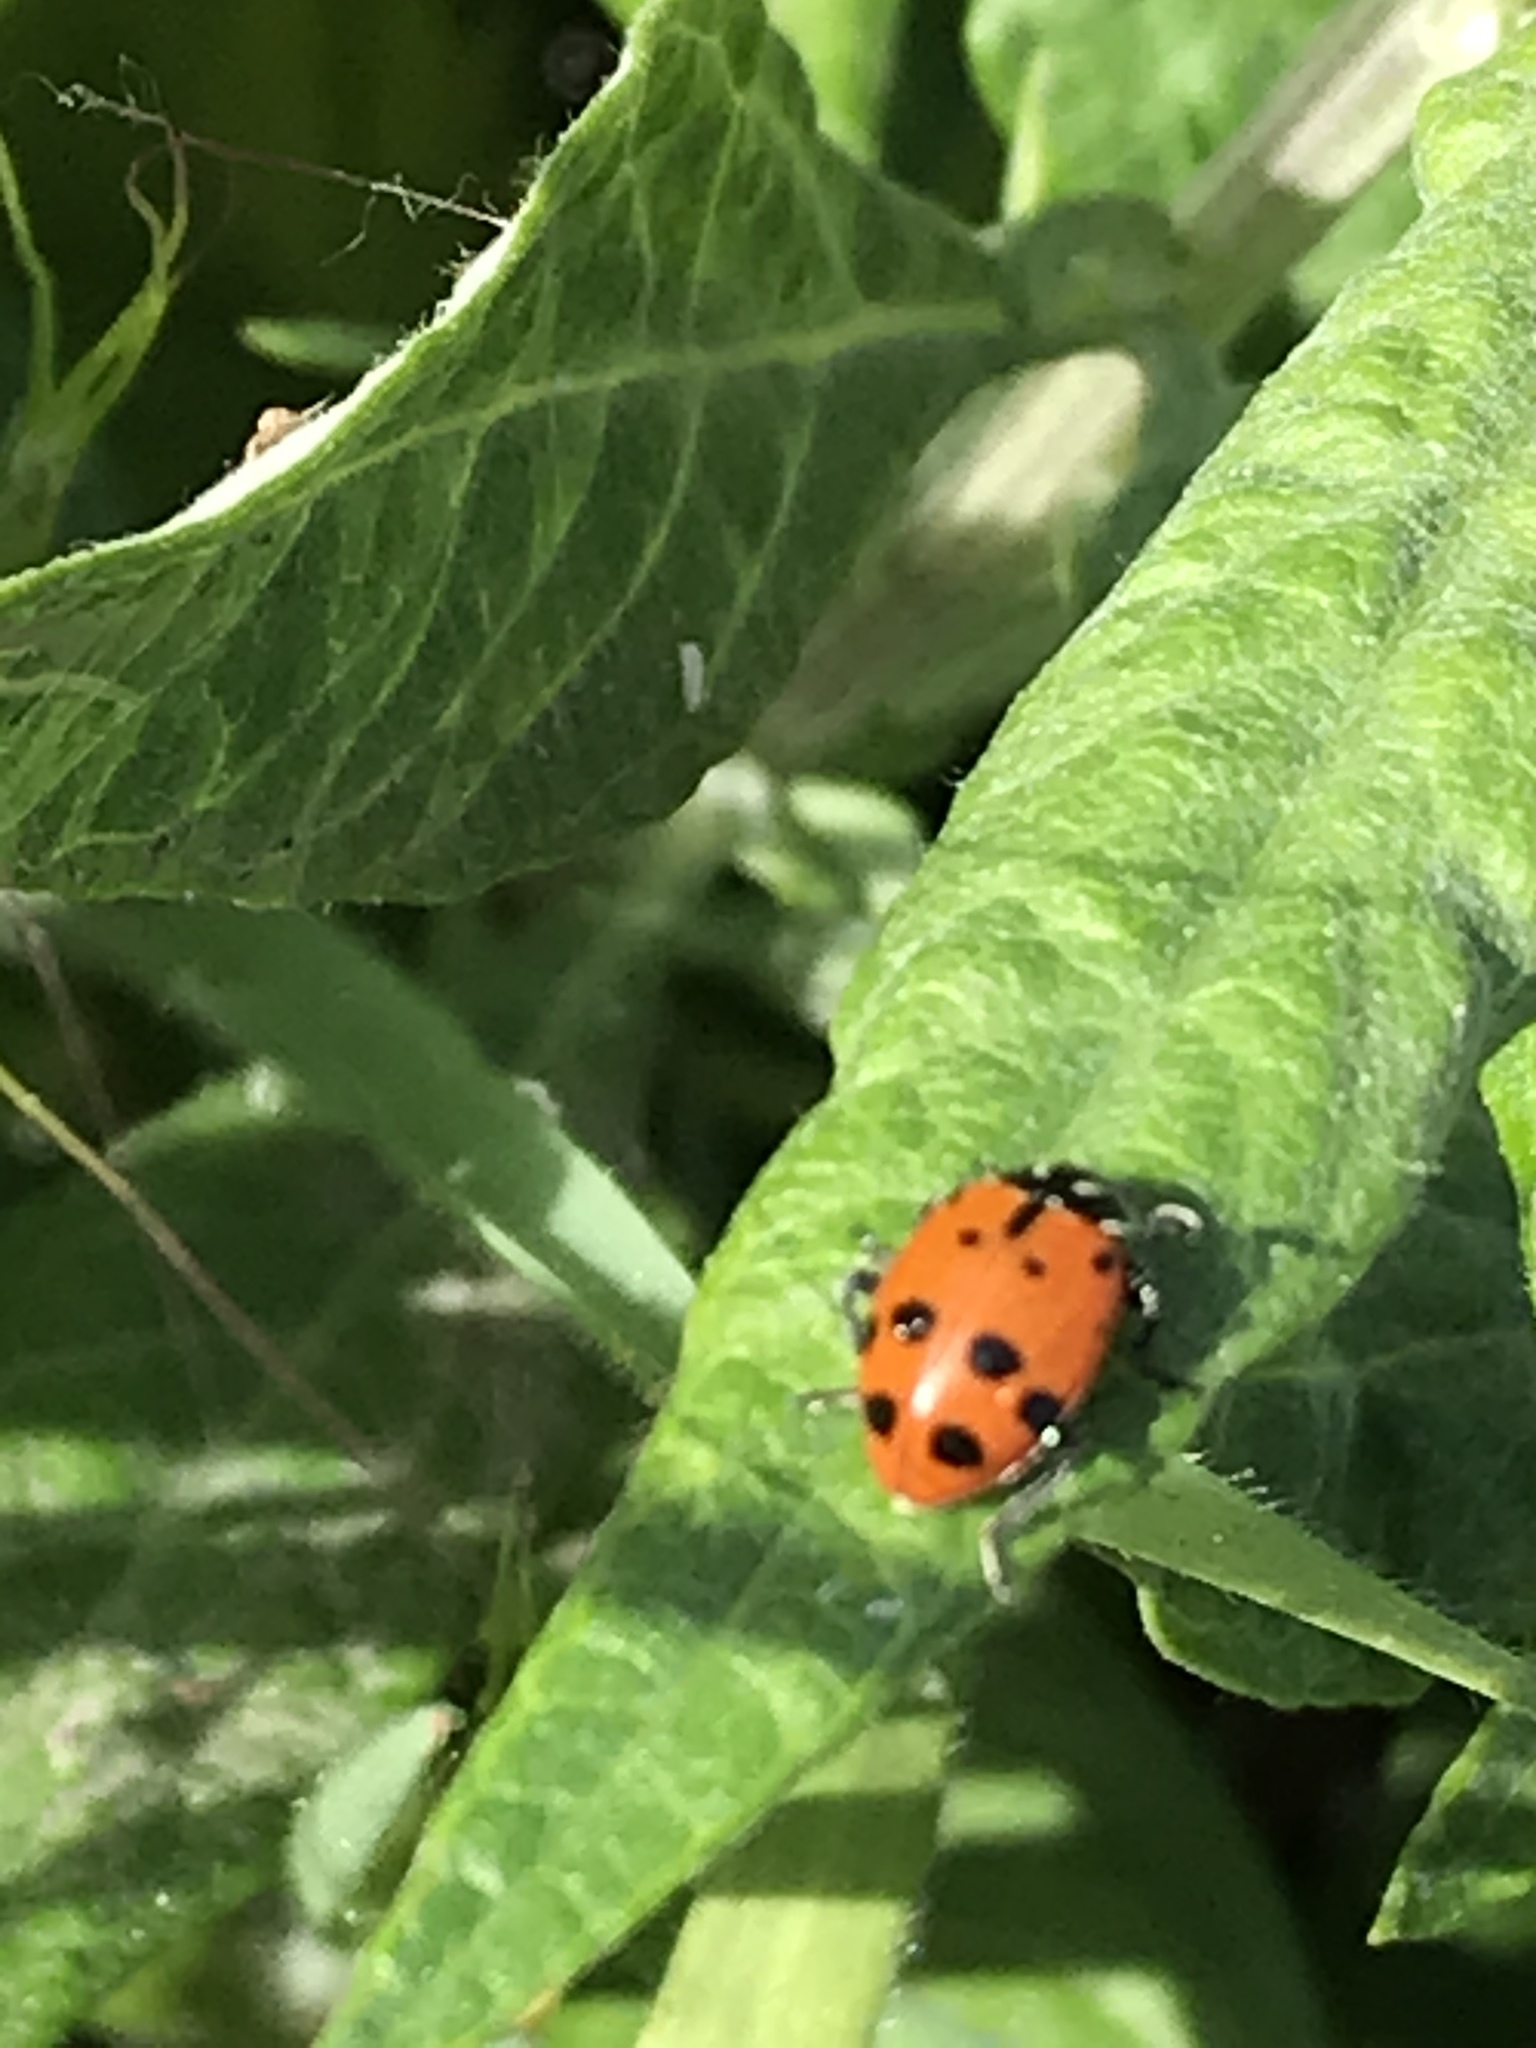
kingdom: Animalia
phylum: Arthropoda
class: Insecta
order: Coleoptera
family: Coccinellidae
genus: Hippodamia
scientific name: Hippodamia convergens
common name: Convergent lady beetle
